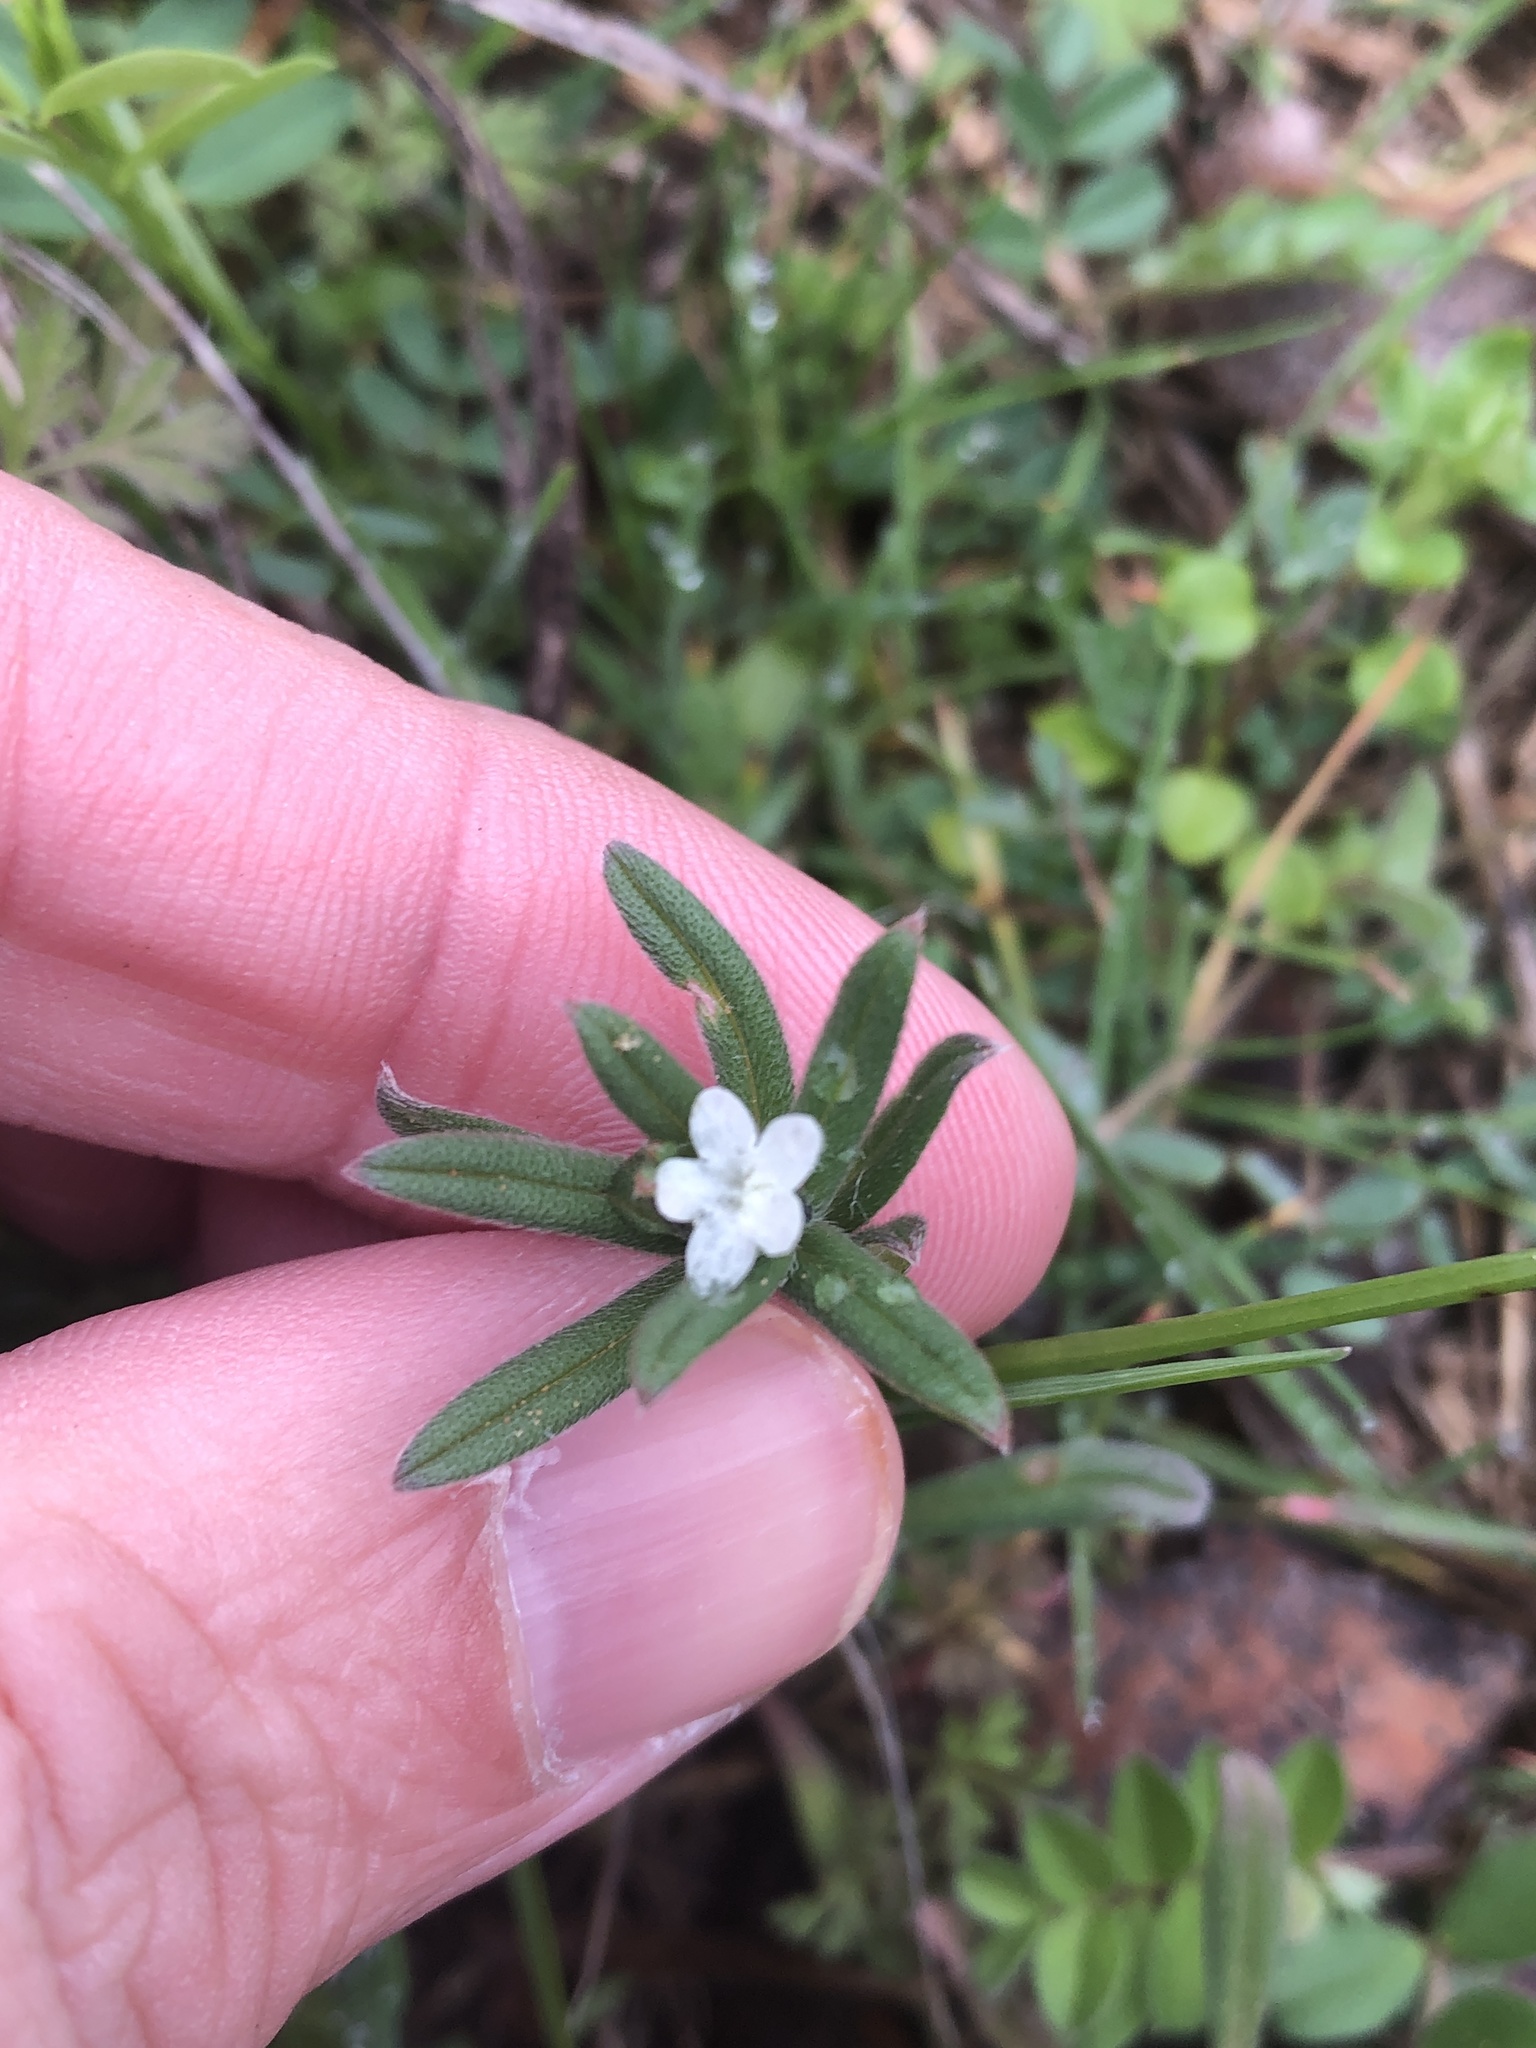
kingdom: Plantae
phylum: Tracheophyta
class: Magnoliopsida
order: Boraginales
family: Boraginaceae
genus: Buglossoides
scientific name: Buglossoides arvensis
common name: Corn gromwell
